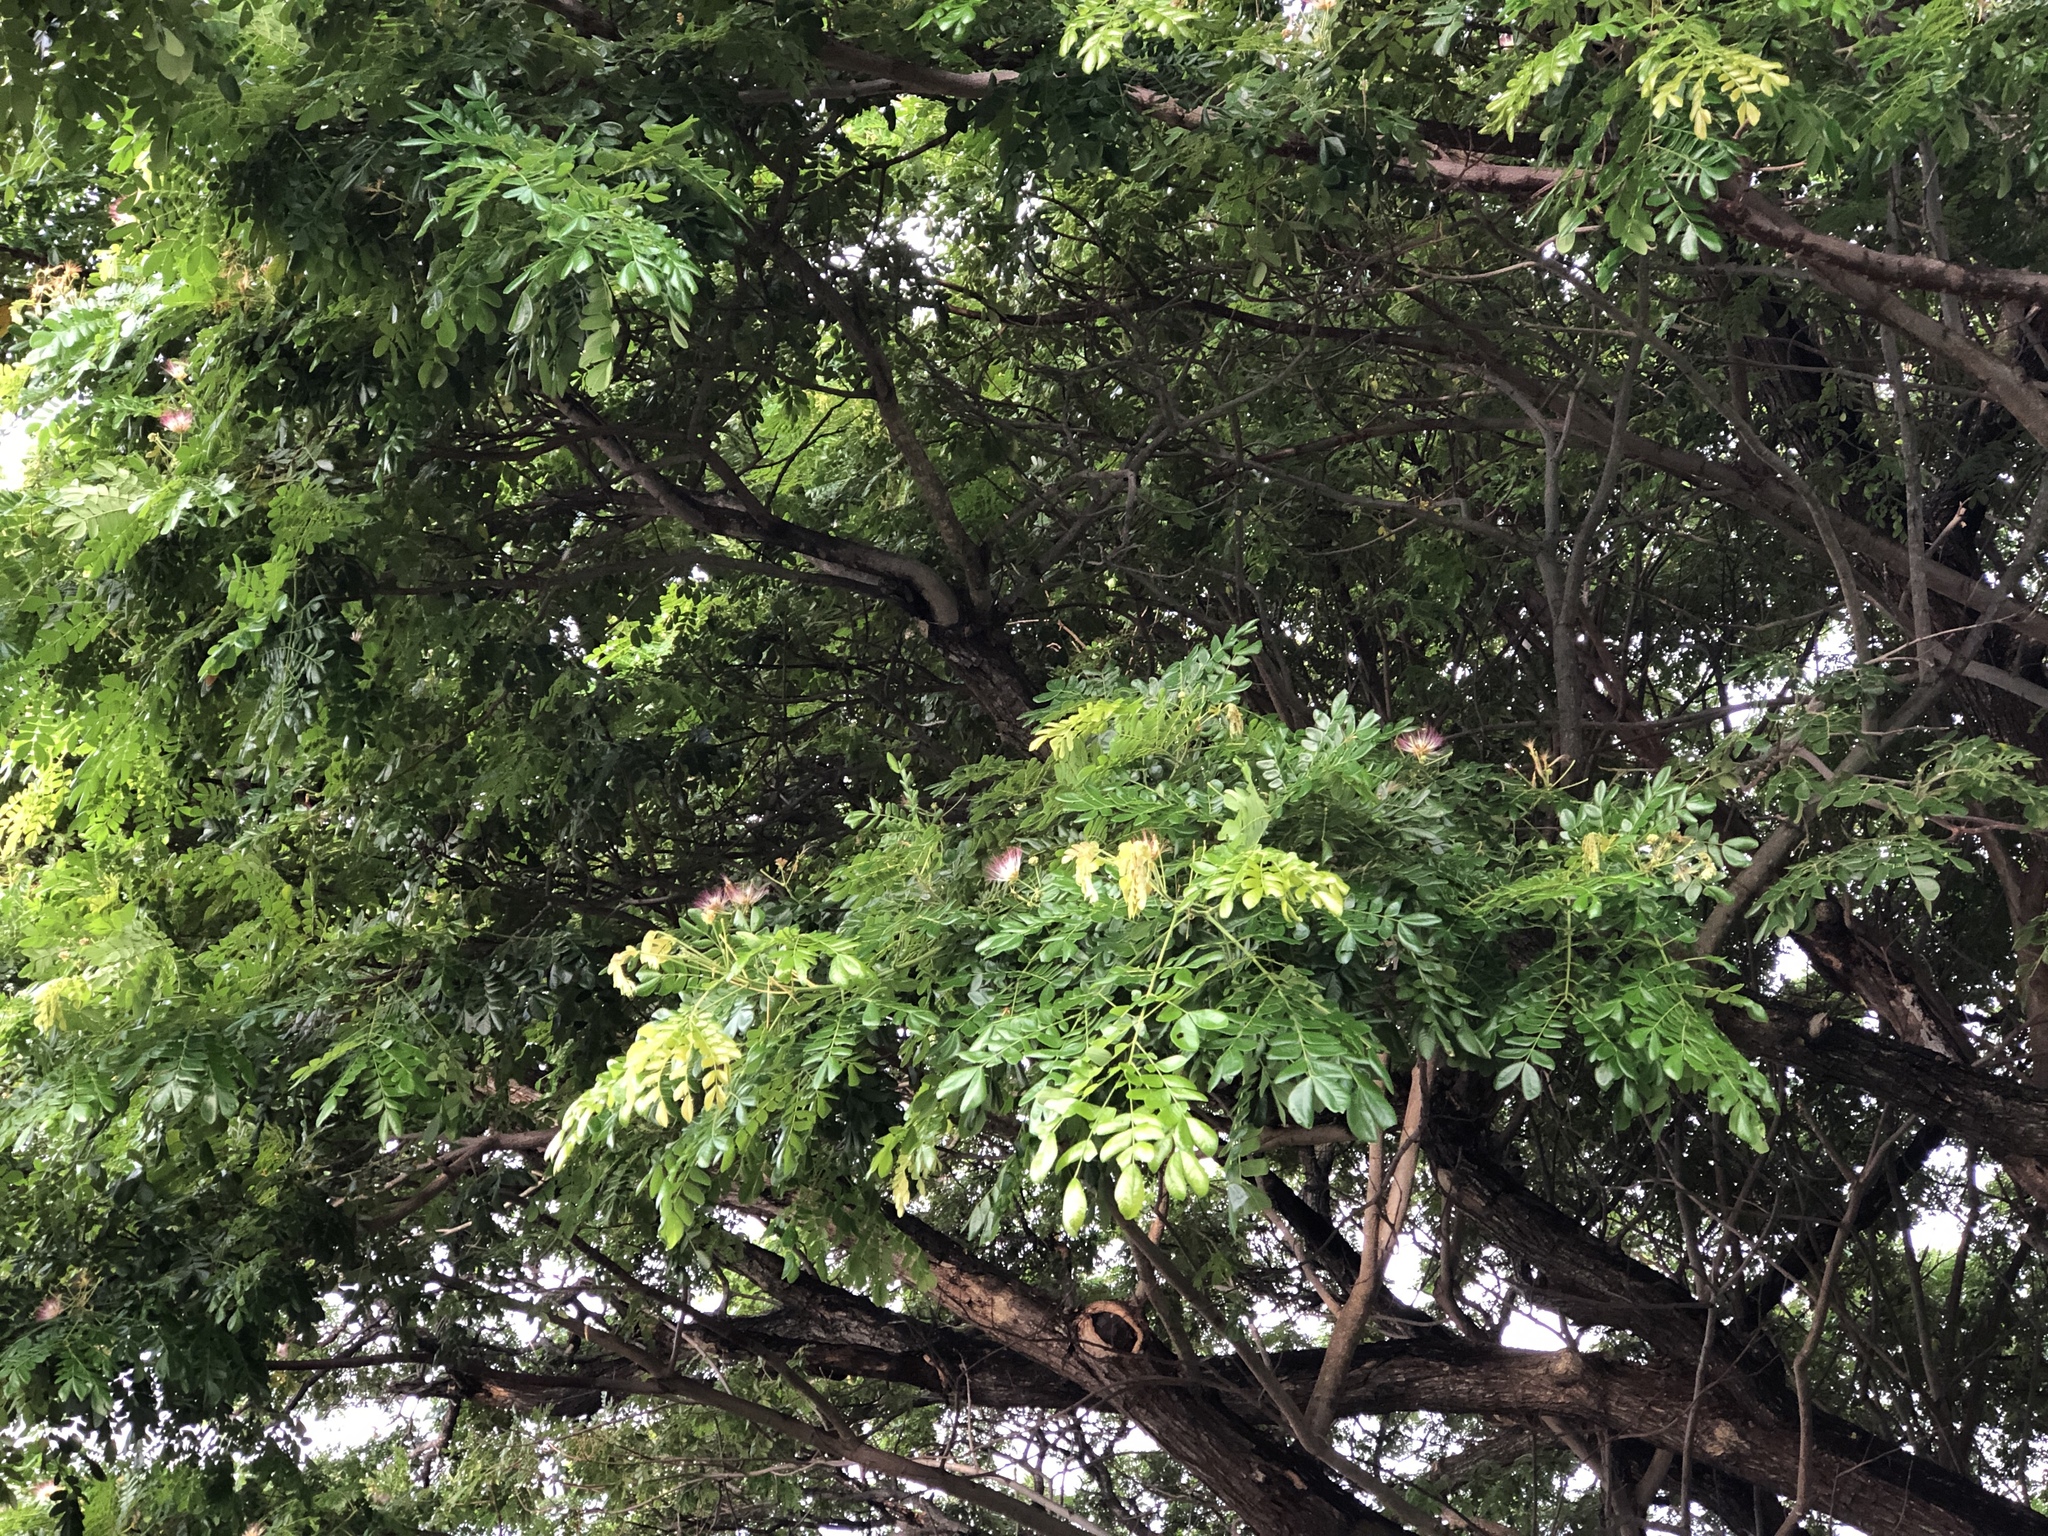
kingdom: Plantae
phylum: Tracheophyta
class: Magnoliopsida
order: Fabales
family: Fabaceae
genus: Samanea
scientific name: Samanea saman
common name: Raintree
